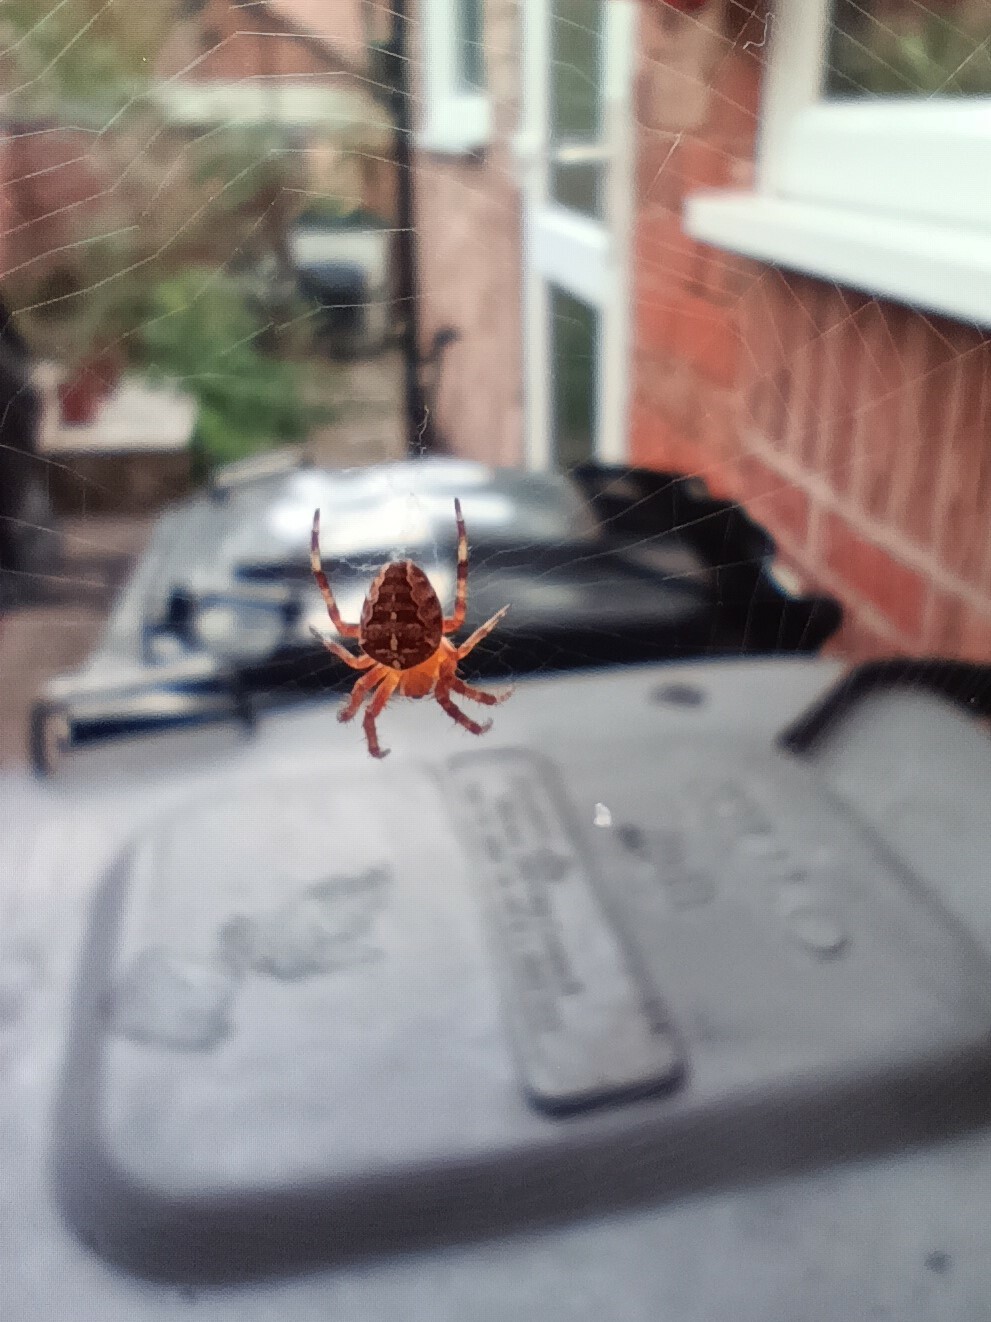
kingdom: Animalia
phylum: Arthropoda
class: Arachnida
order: Araneae
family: Araneidae
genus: Araneus
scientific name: Araneus diadematus
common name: Cross orbweaver
